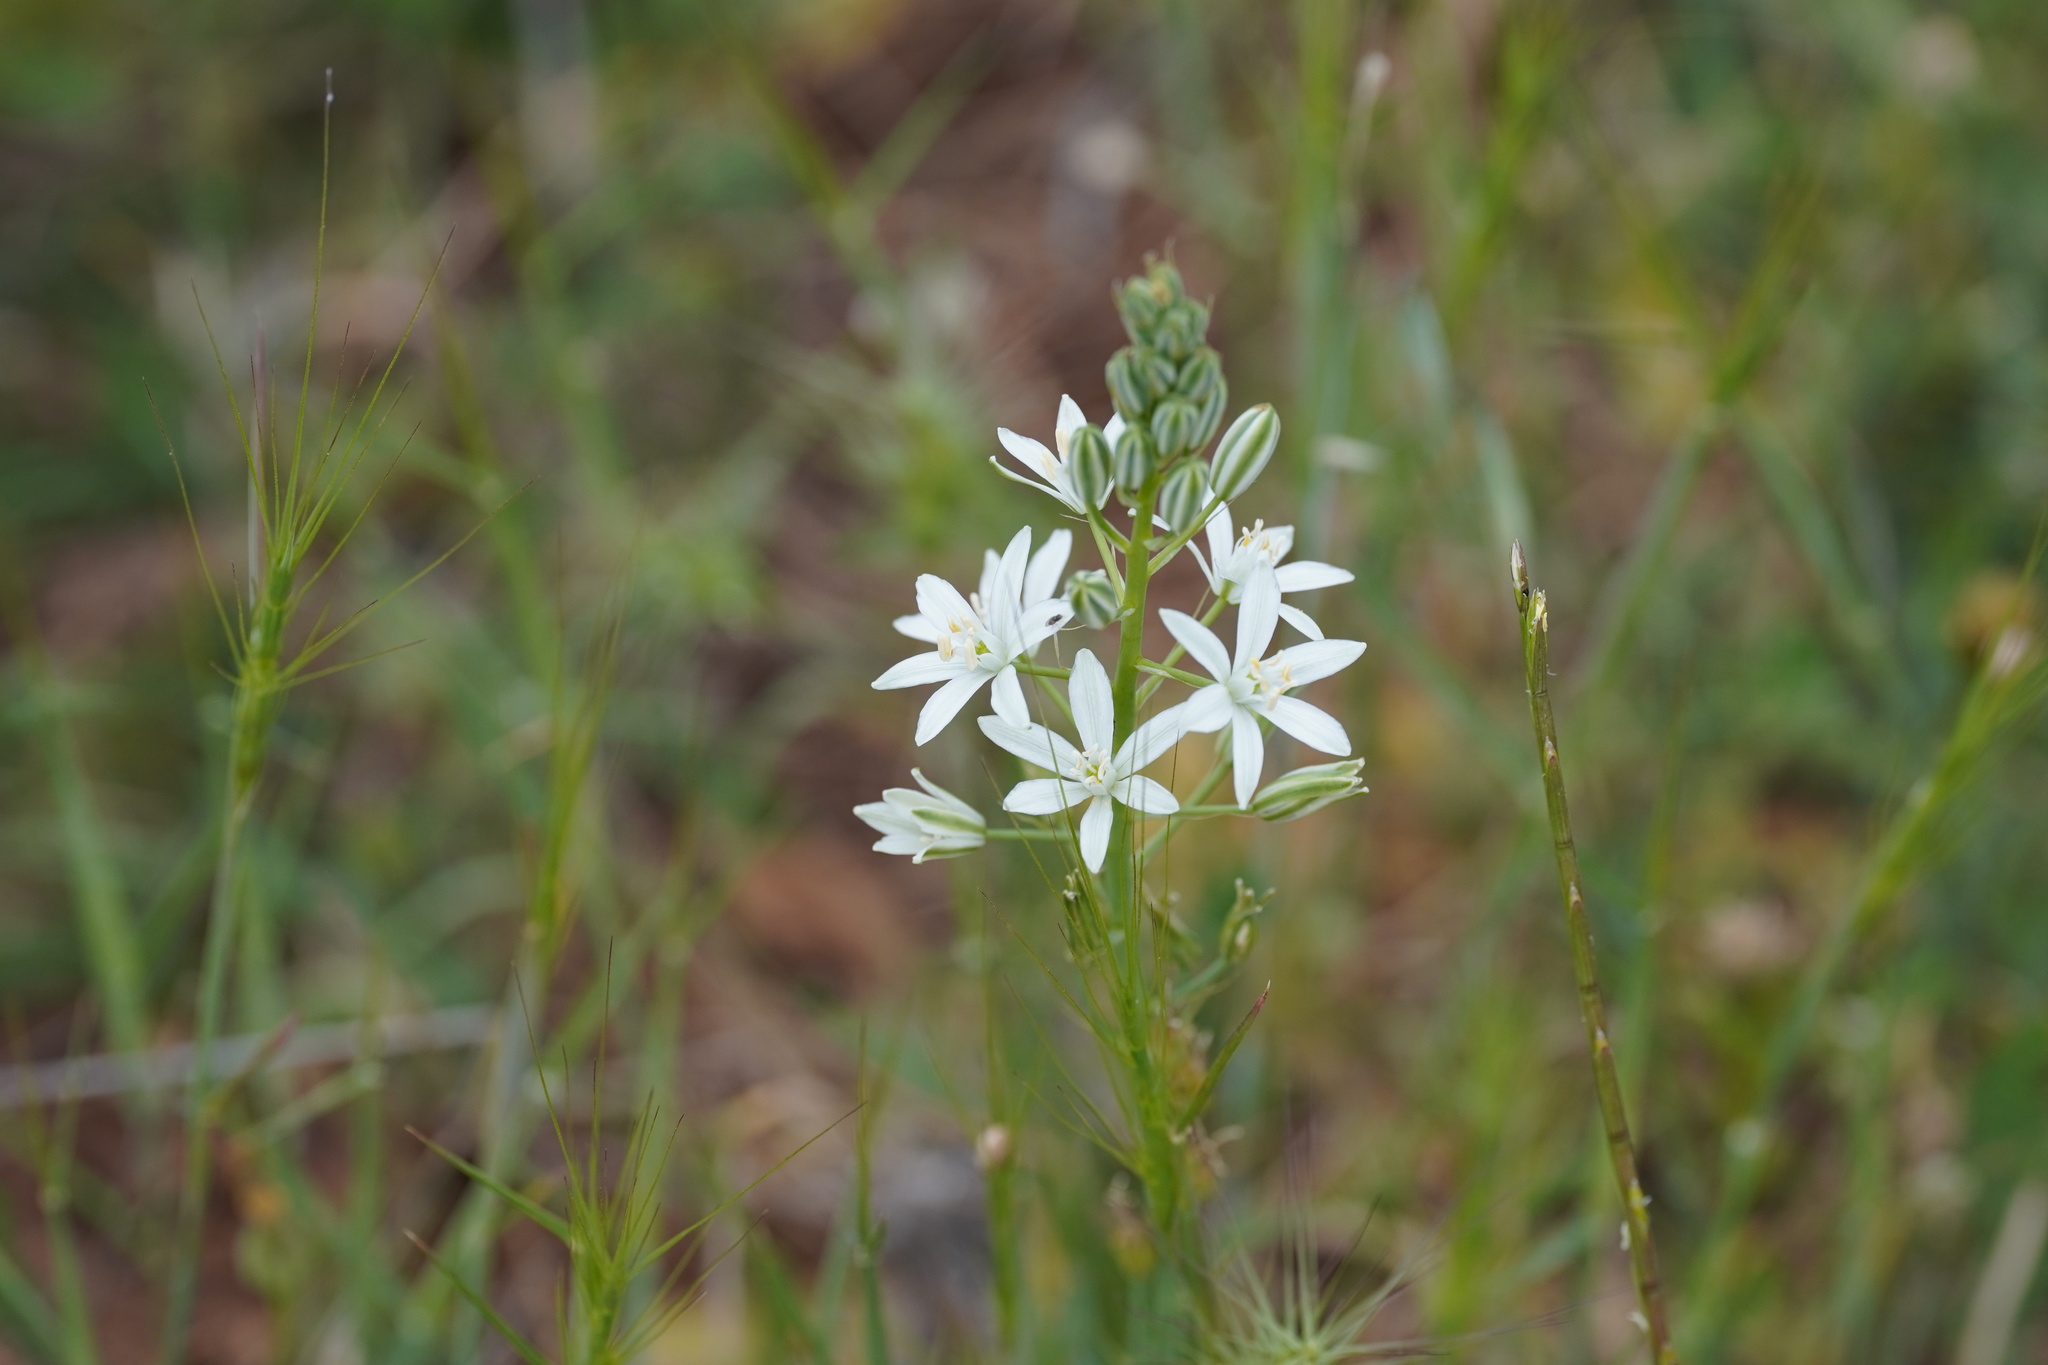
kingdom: Plantae
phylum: Tracheophyta
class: Liliopsida
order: Asparagales
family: Asparagaceae
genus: Ornithogalum
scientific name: Ornithogalum narbonense
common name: Bath-asparagus
